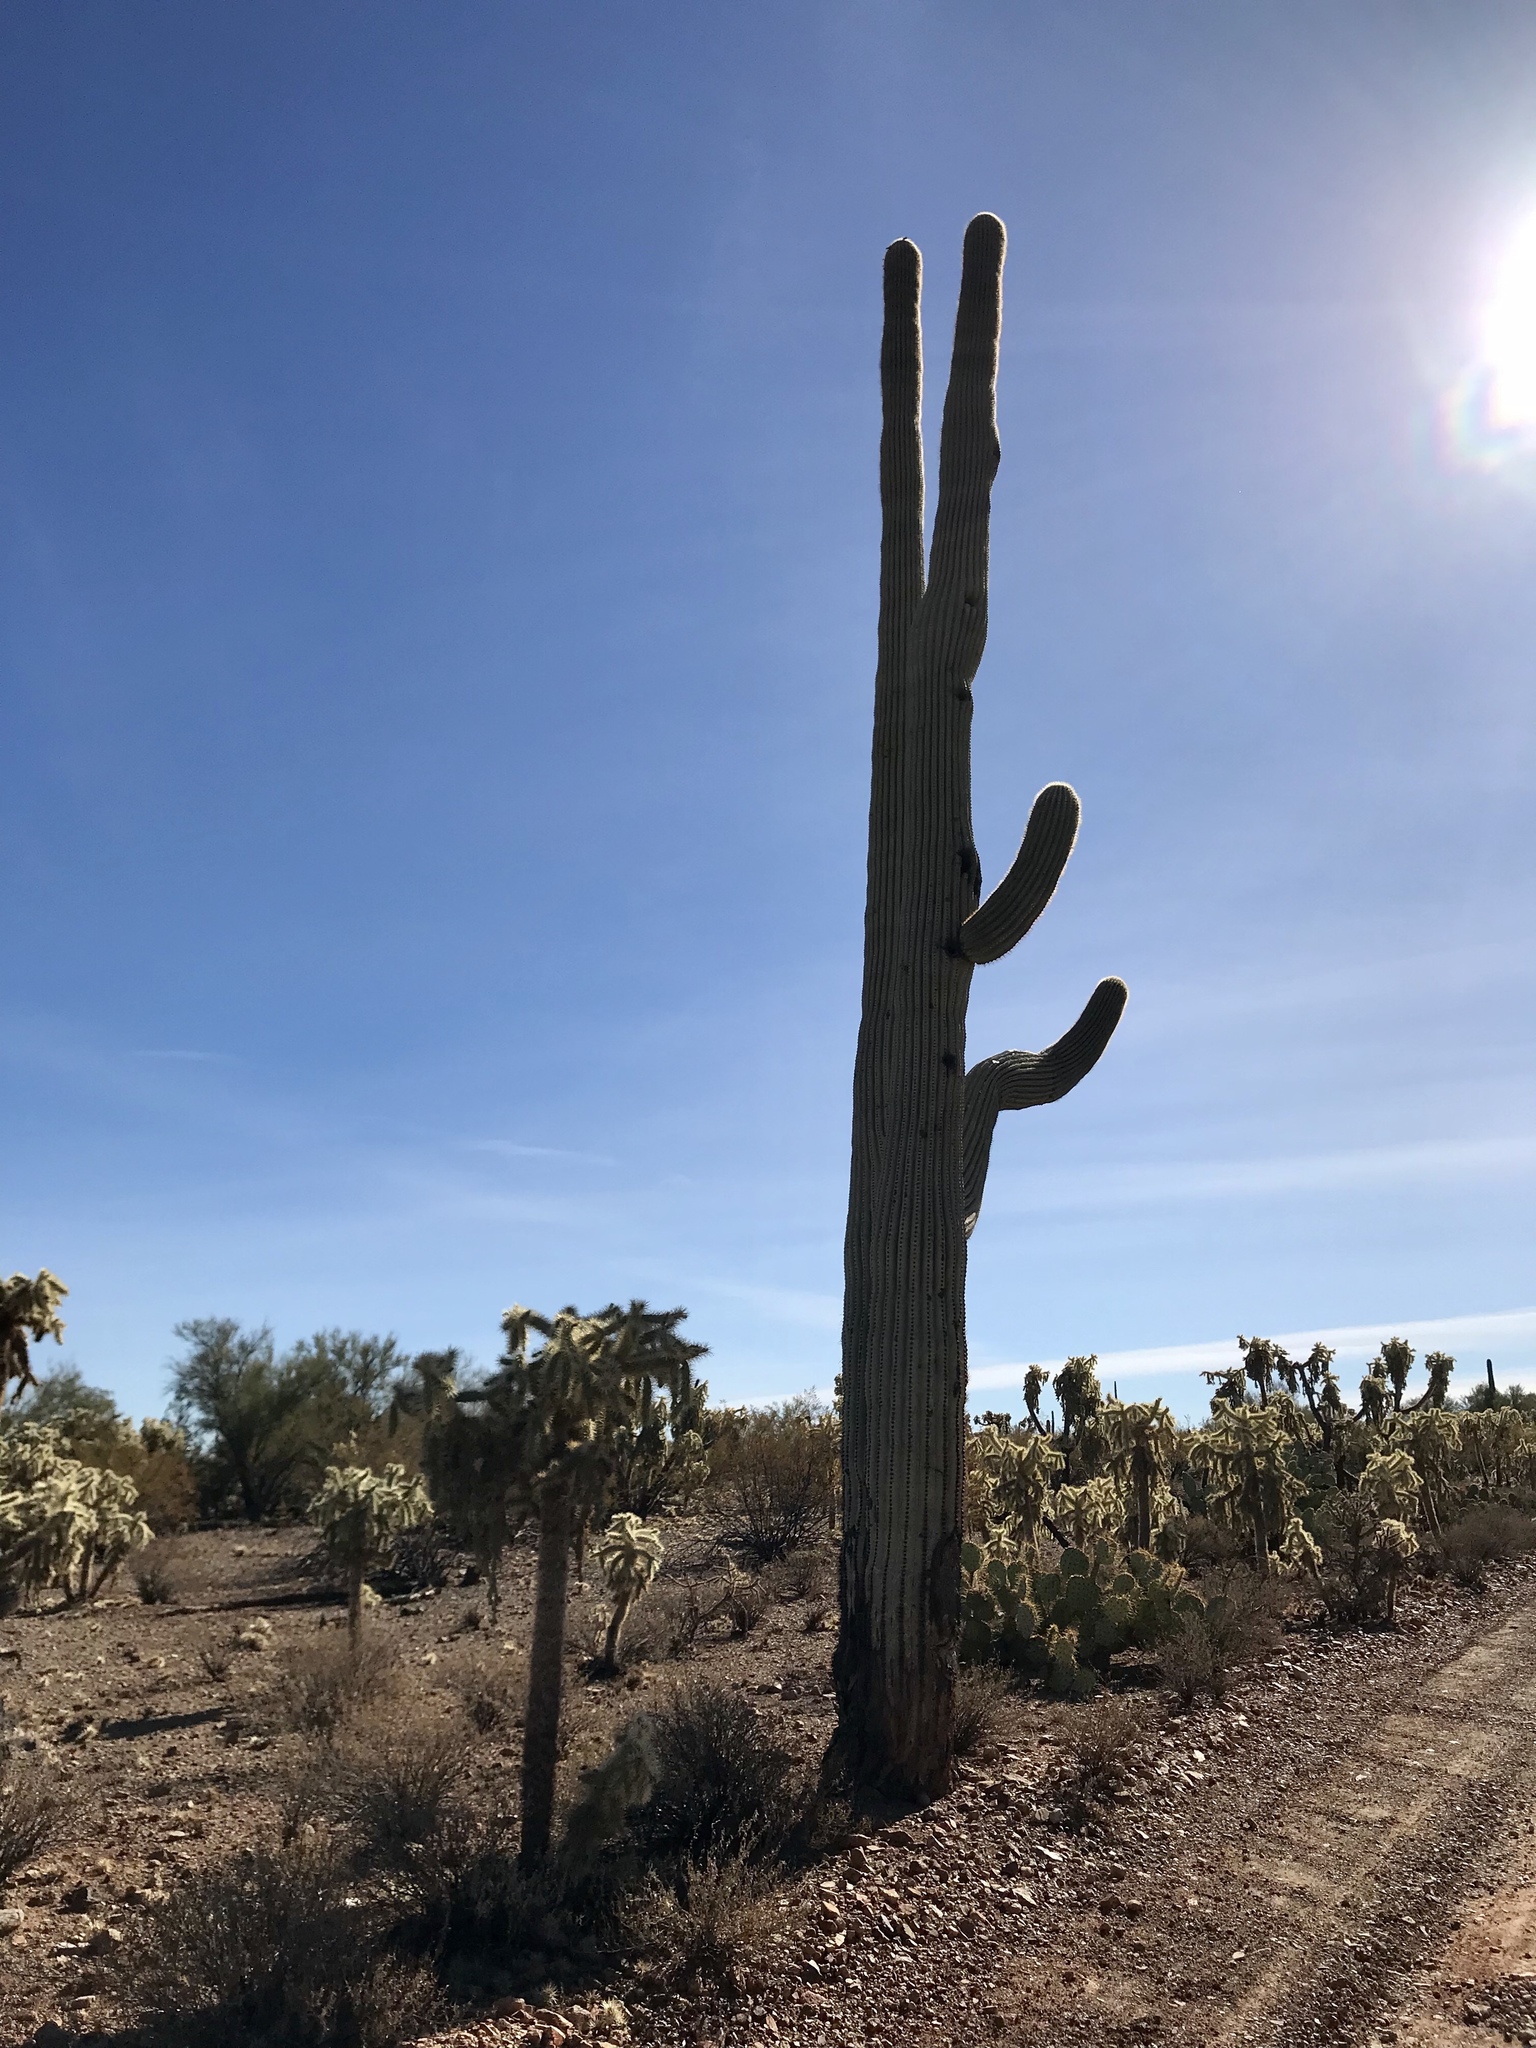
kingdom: Plantae
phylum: Tracheophyta
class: Magnoliopsida
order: Caryophyllales
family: Cactaceae
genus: Carnegiea
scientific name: Carnegiea gigantea
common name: Saguaro
